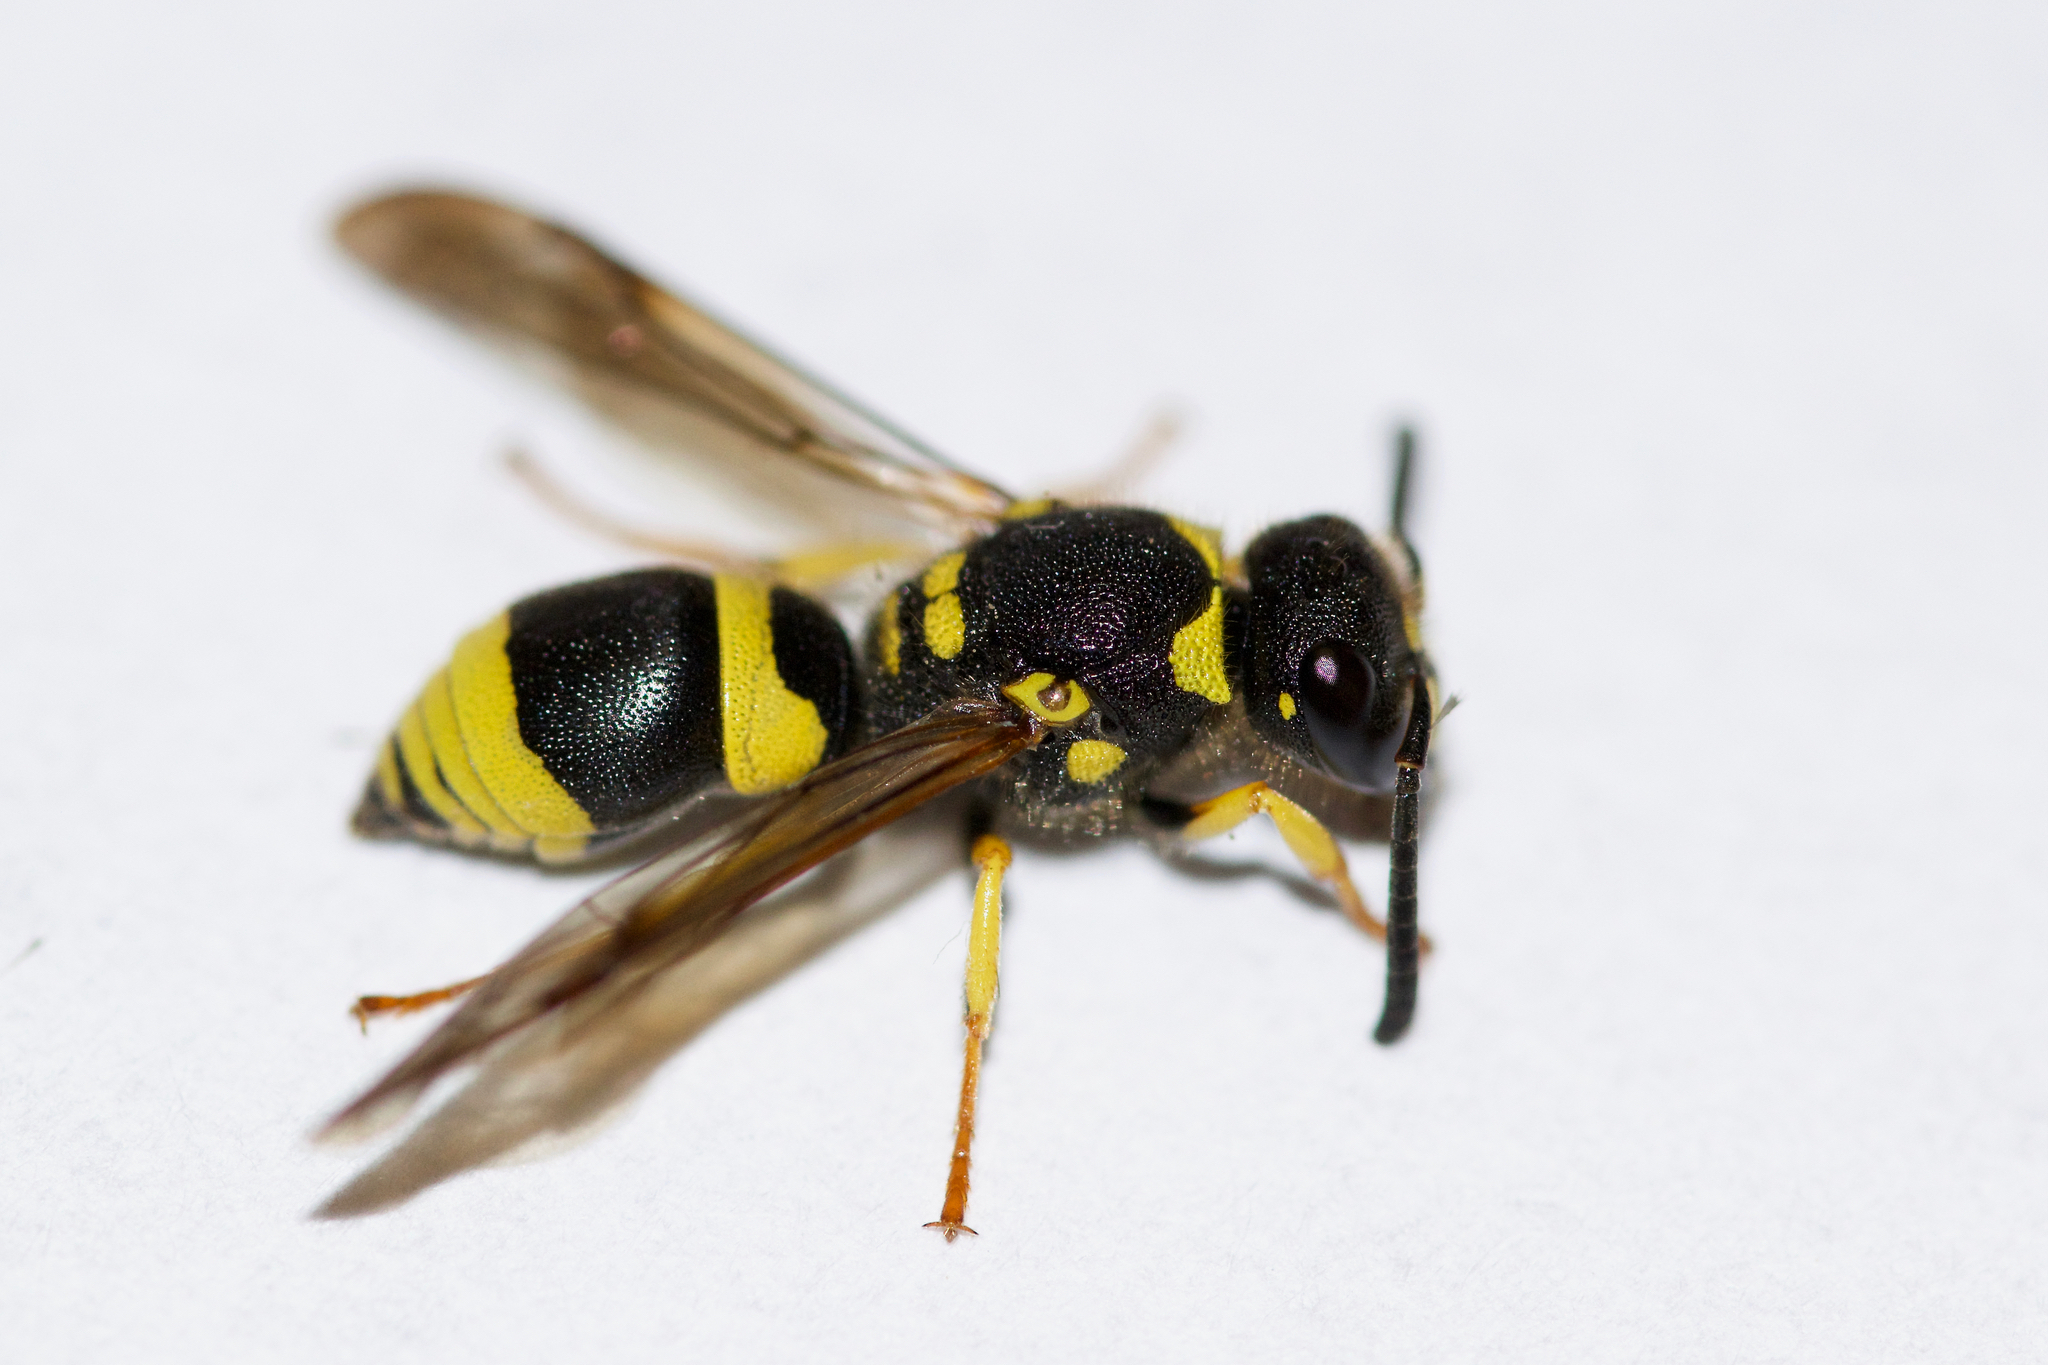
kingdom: Animalia
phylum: Arthropoda
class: Insecta
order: Hymenoptera
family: Vespidae
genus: Ancistrocerus
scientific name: Ancistrocerus gazella
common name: European tube wasp
